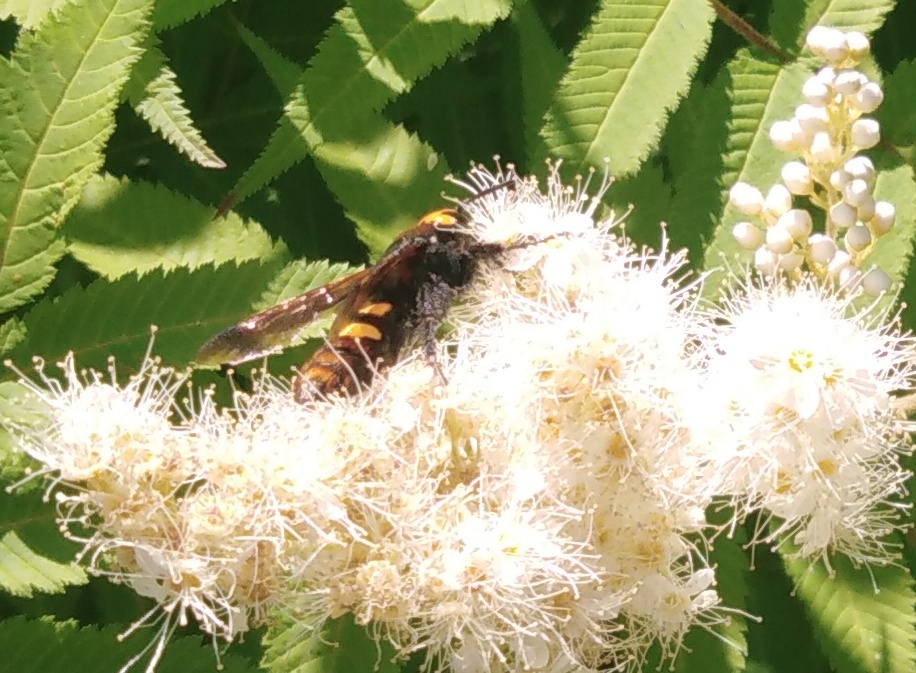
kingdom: Animalia
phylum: Arthropoda
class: Insecta
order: Hymenoptera
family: Scoliidae
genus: Megascolia
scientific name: Megascolia maculata
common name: Mammoth wasp
